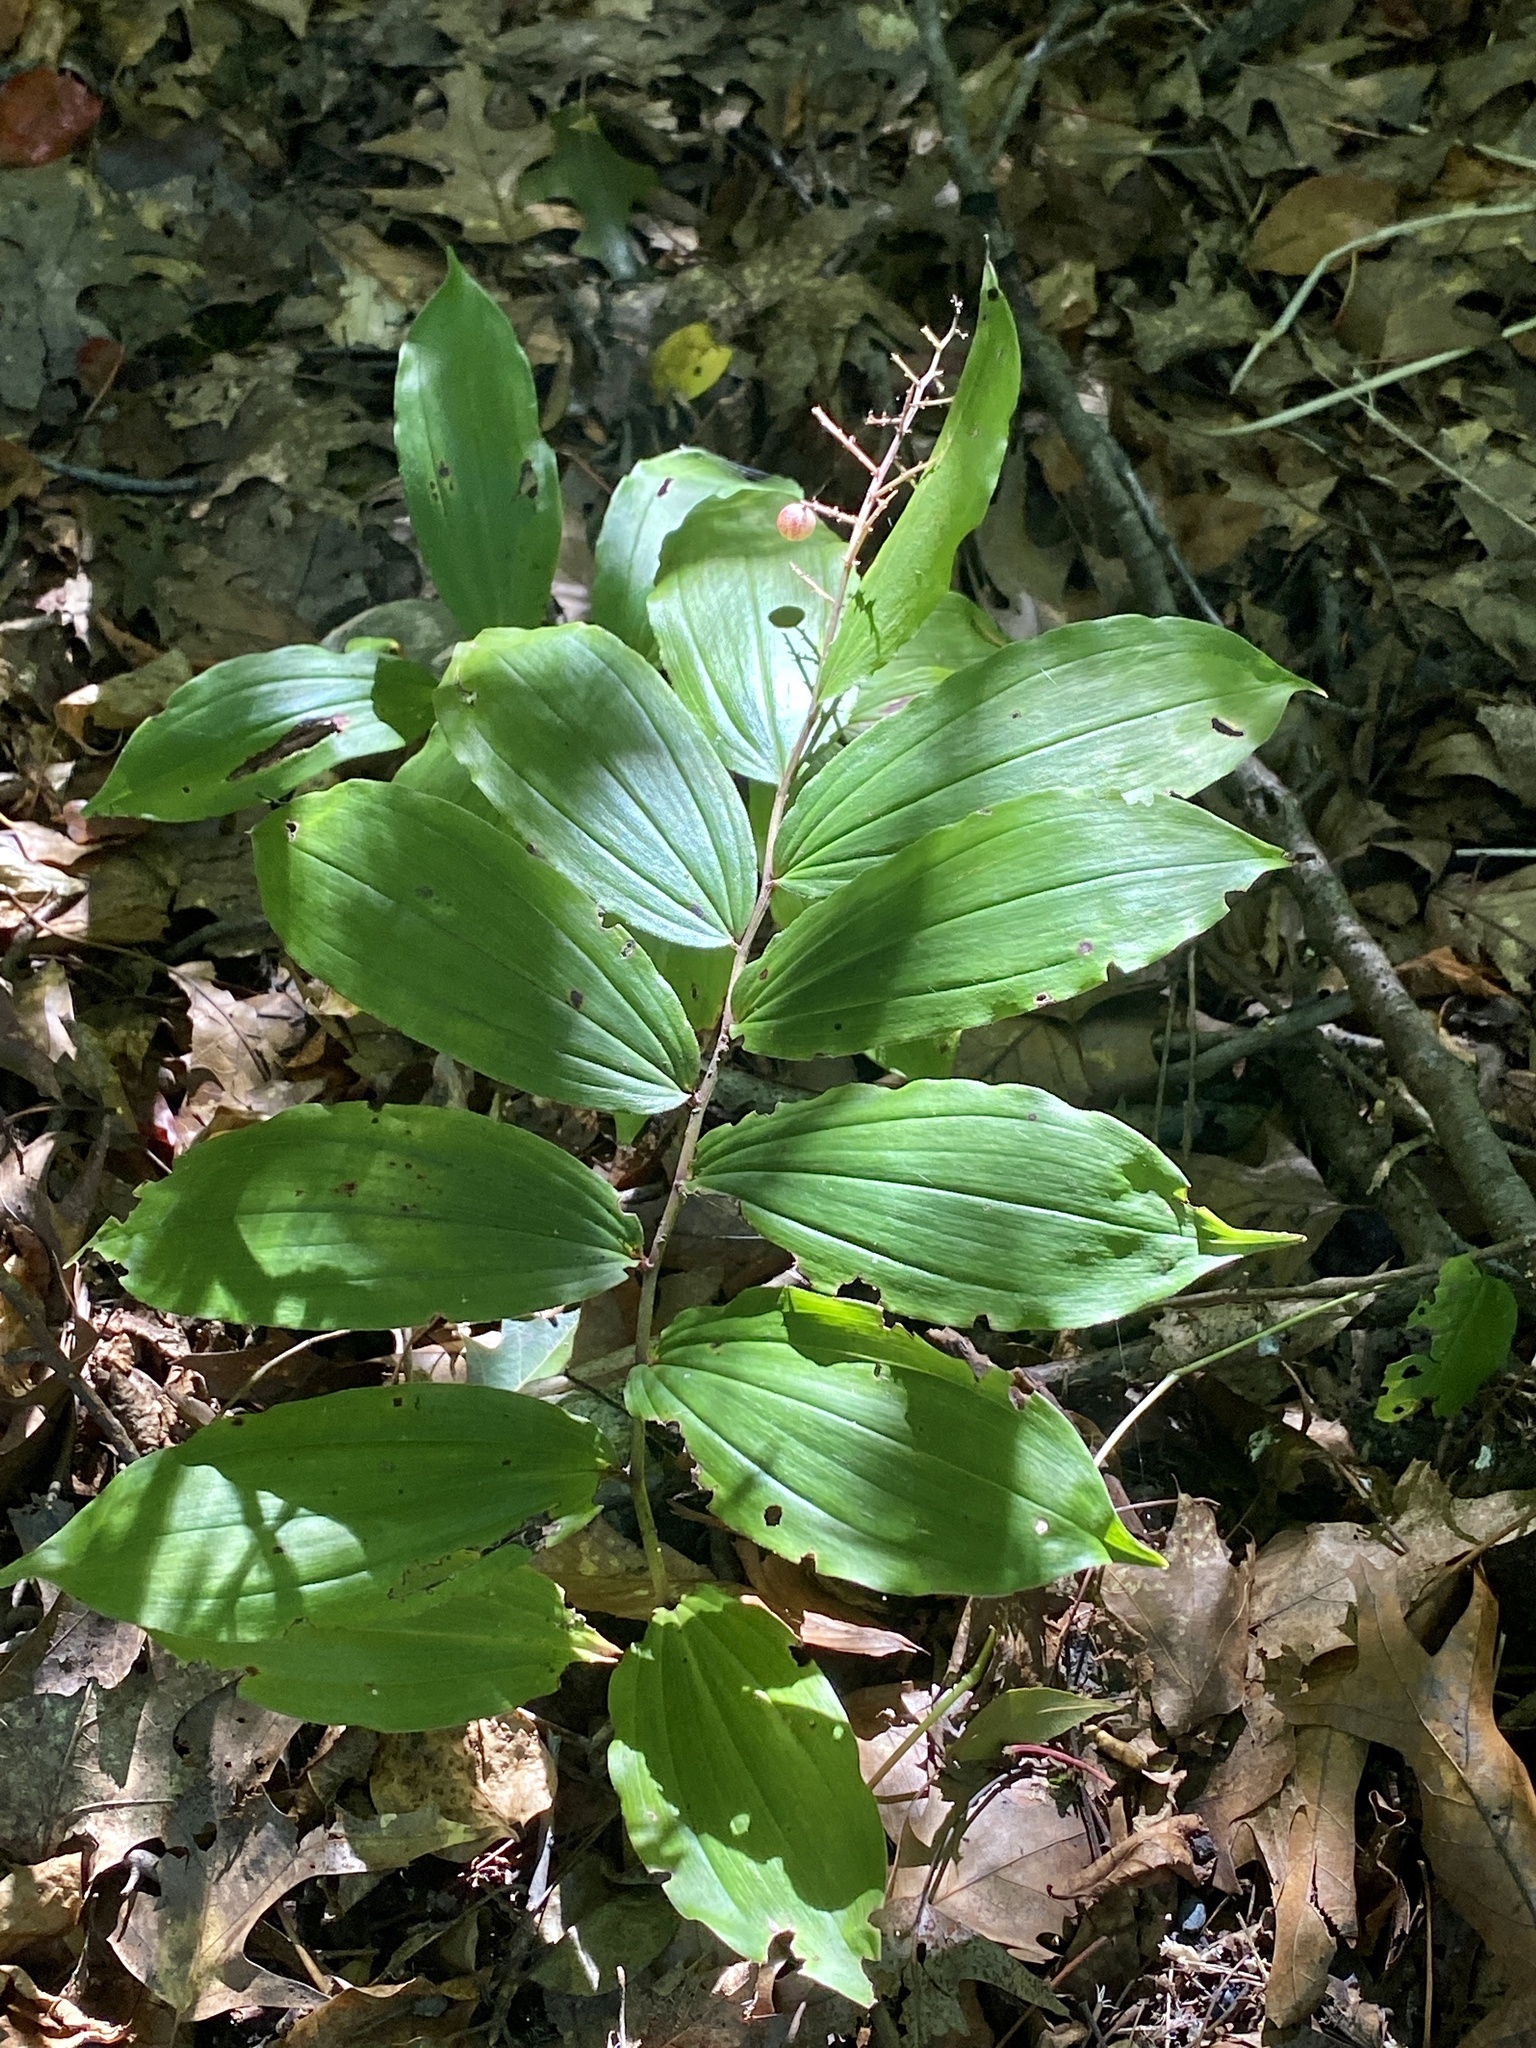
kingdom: Plantae
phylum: Tracheophyta
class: Liliopsida
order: Asparagales
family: Asparagaceae
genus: Maianthemum
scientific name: Maianthemum racemosum
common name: False spikenard
